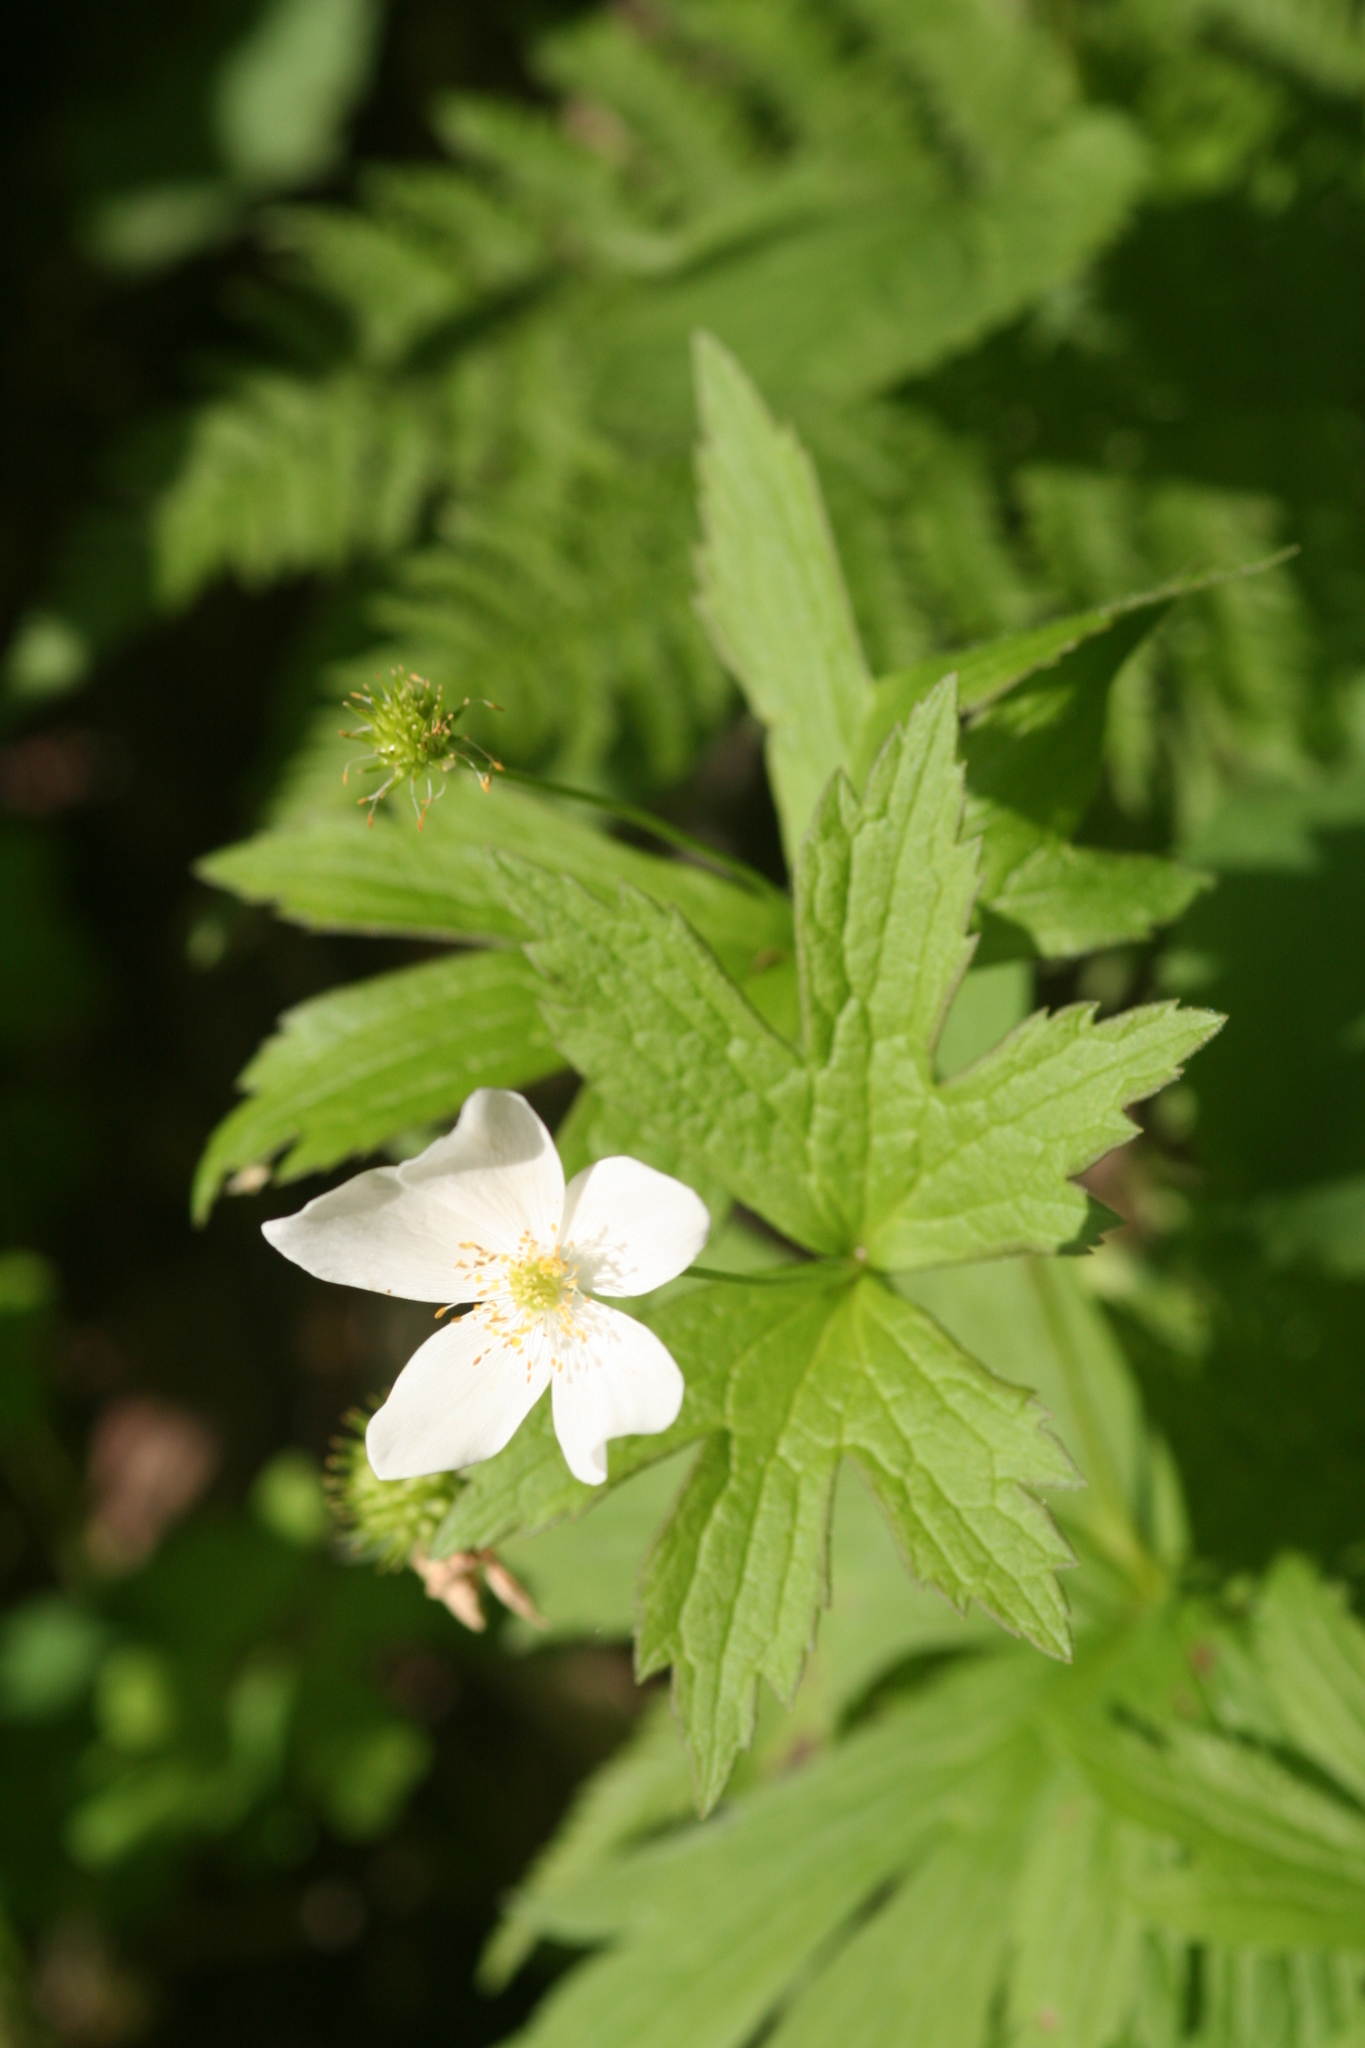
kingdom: Plantae
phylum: Tracheophyta
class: Magnoliopsida
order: Ranunculales
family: Ranunculaceae
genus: Anemonastrum
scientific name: Anemonastrum canadense
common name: Canada anemone
